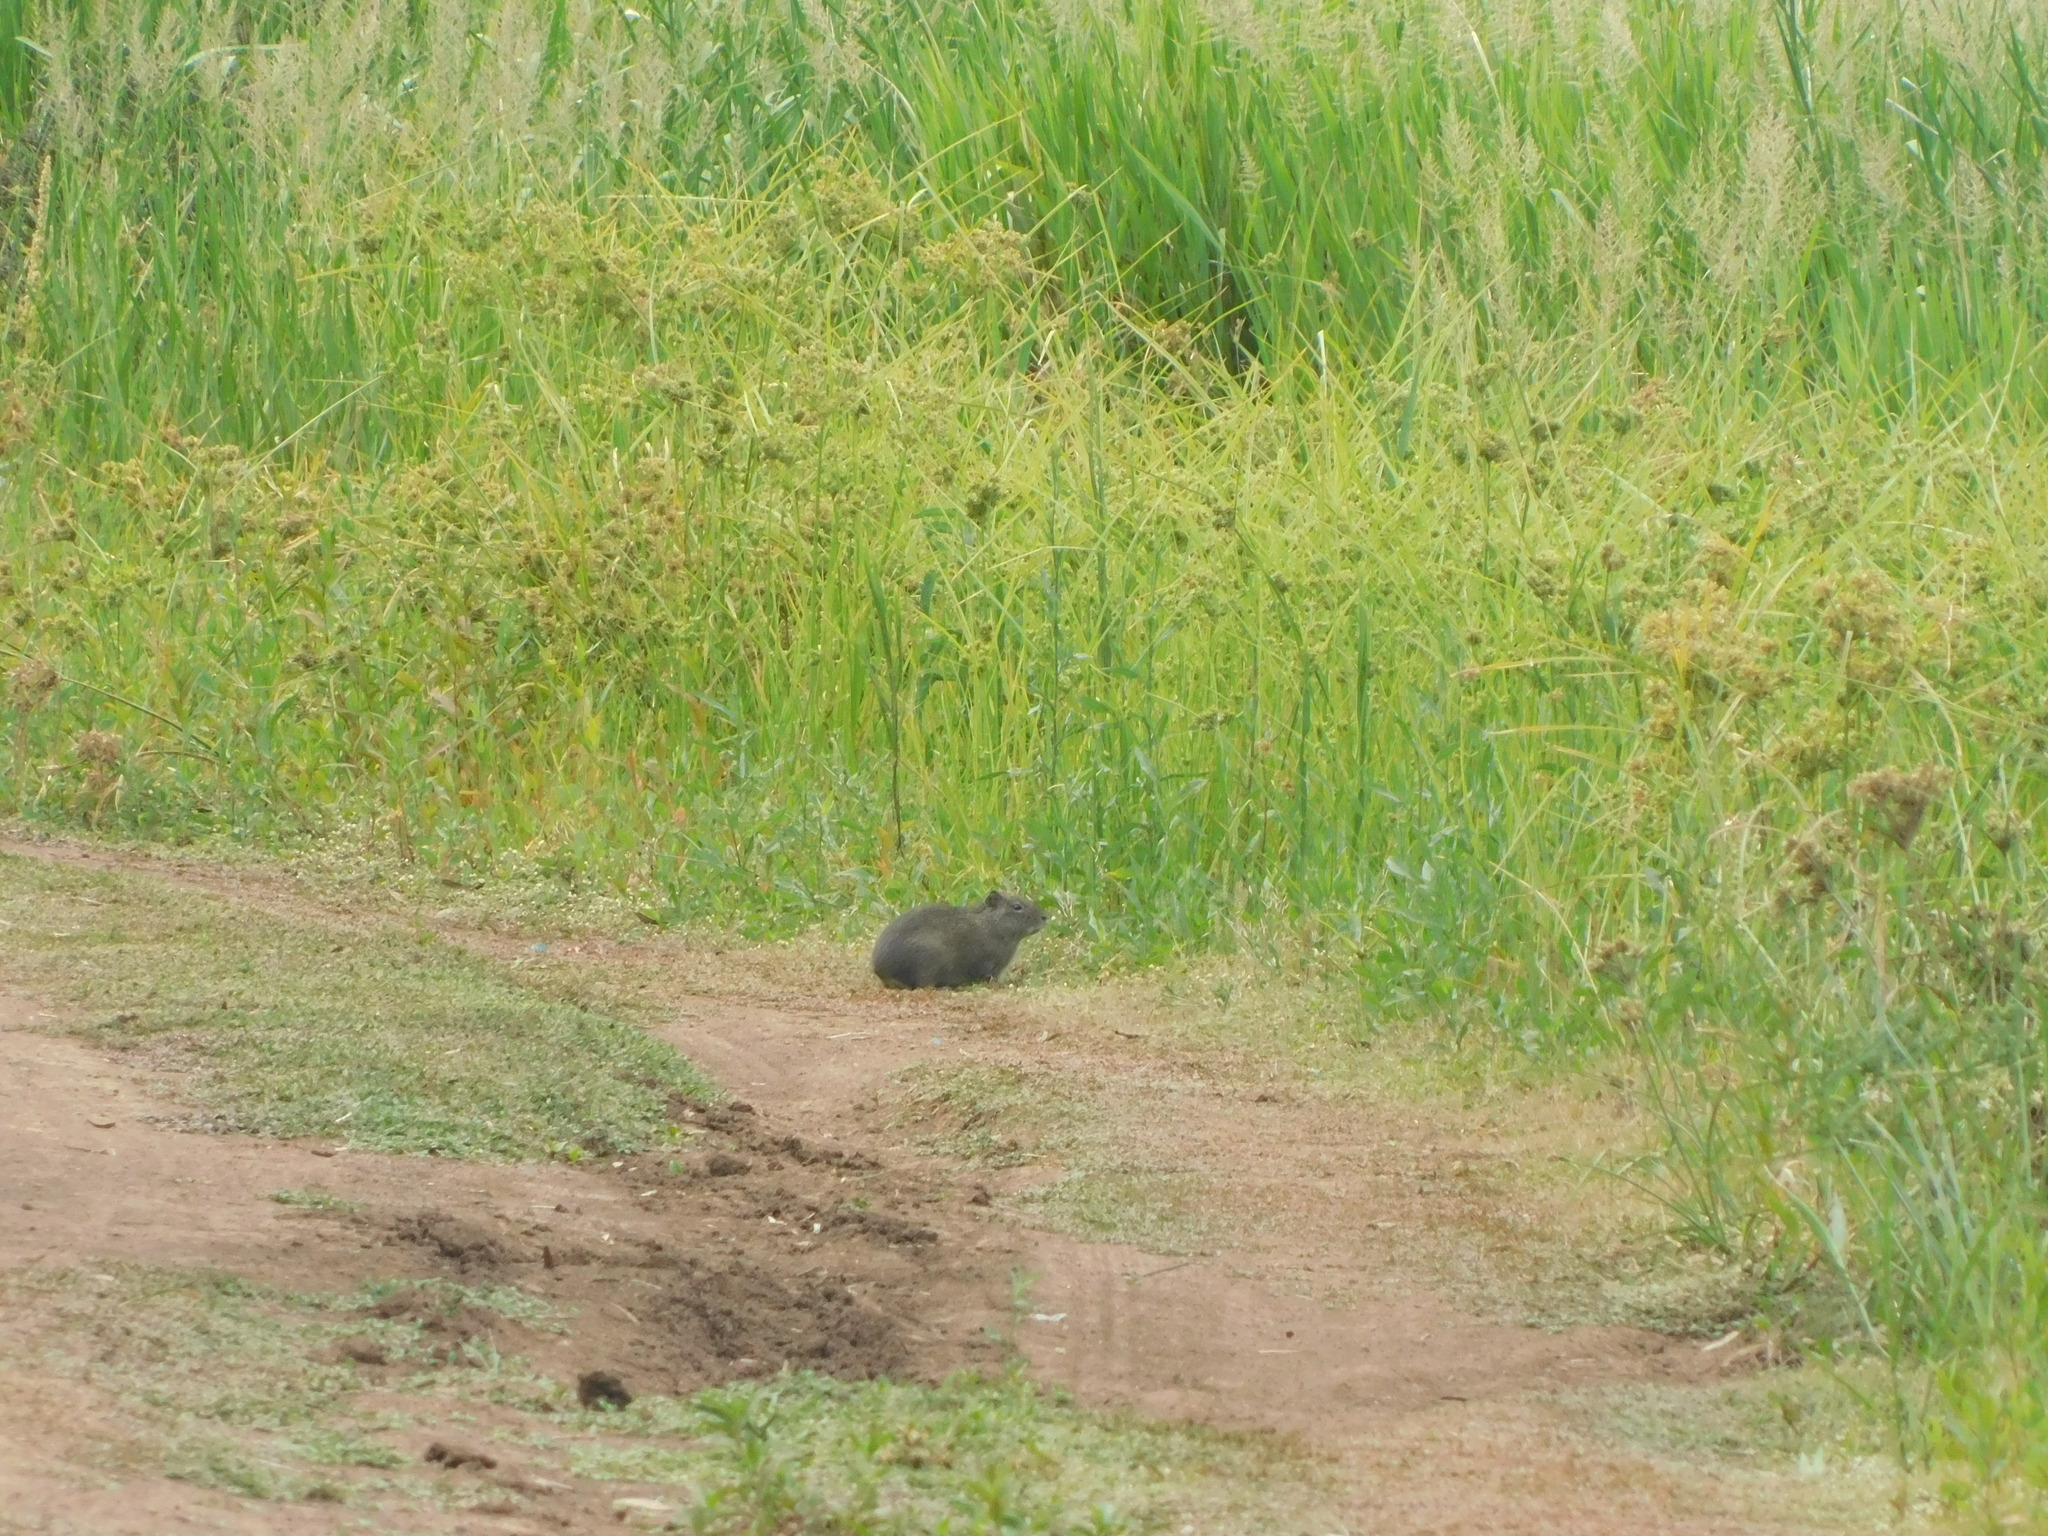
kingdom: Animalia
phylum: Chordata
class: Mammalia
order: Rodentia
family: Caviidae
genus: Cavia
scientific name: Cavia aperea
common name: Brazilian guinea pig
